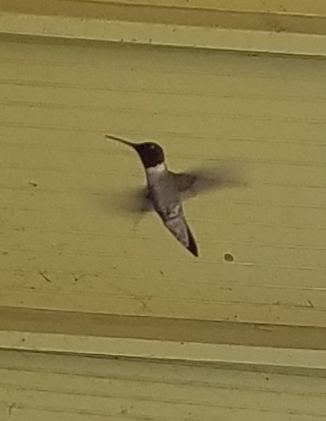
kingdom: Animalia
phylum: Chordata
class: Aves
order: Apodiformes
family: Trochilidae
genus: Archilochus
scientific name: Archilochus colubris
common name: Ruby-throated hummingbird
